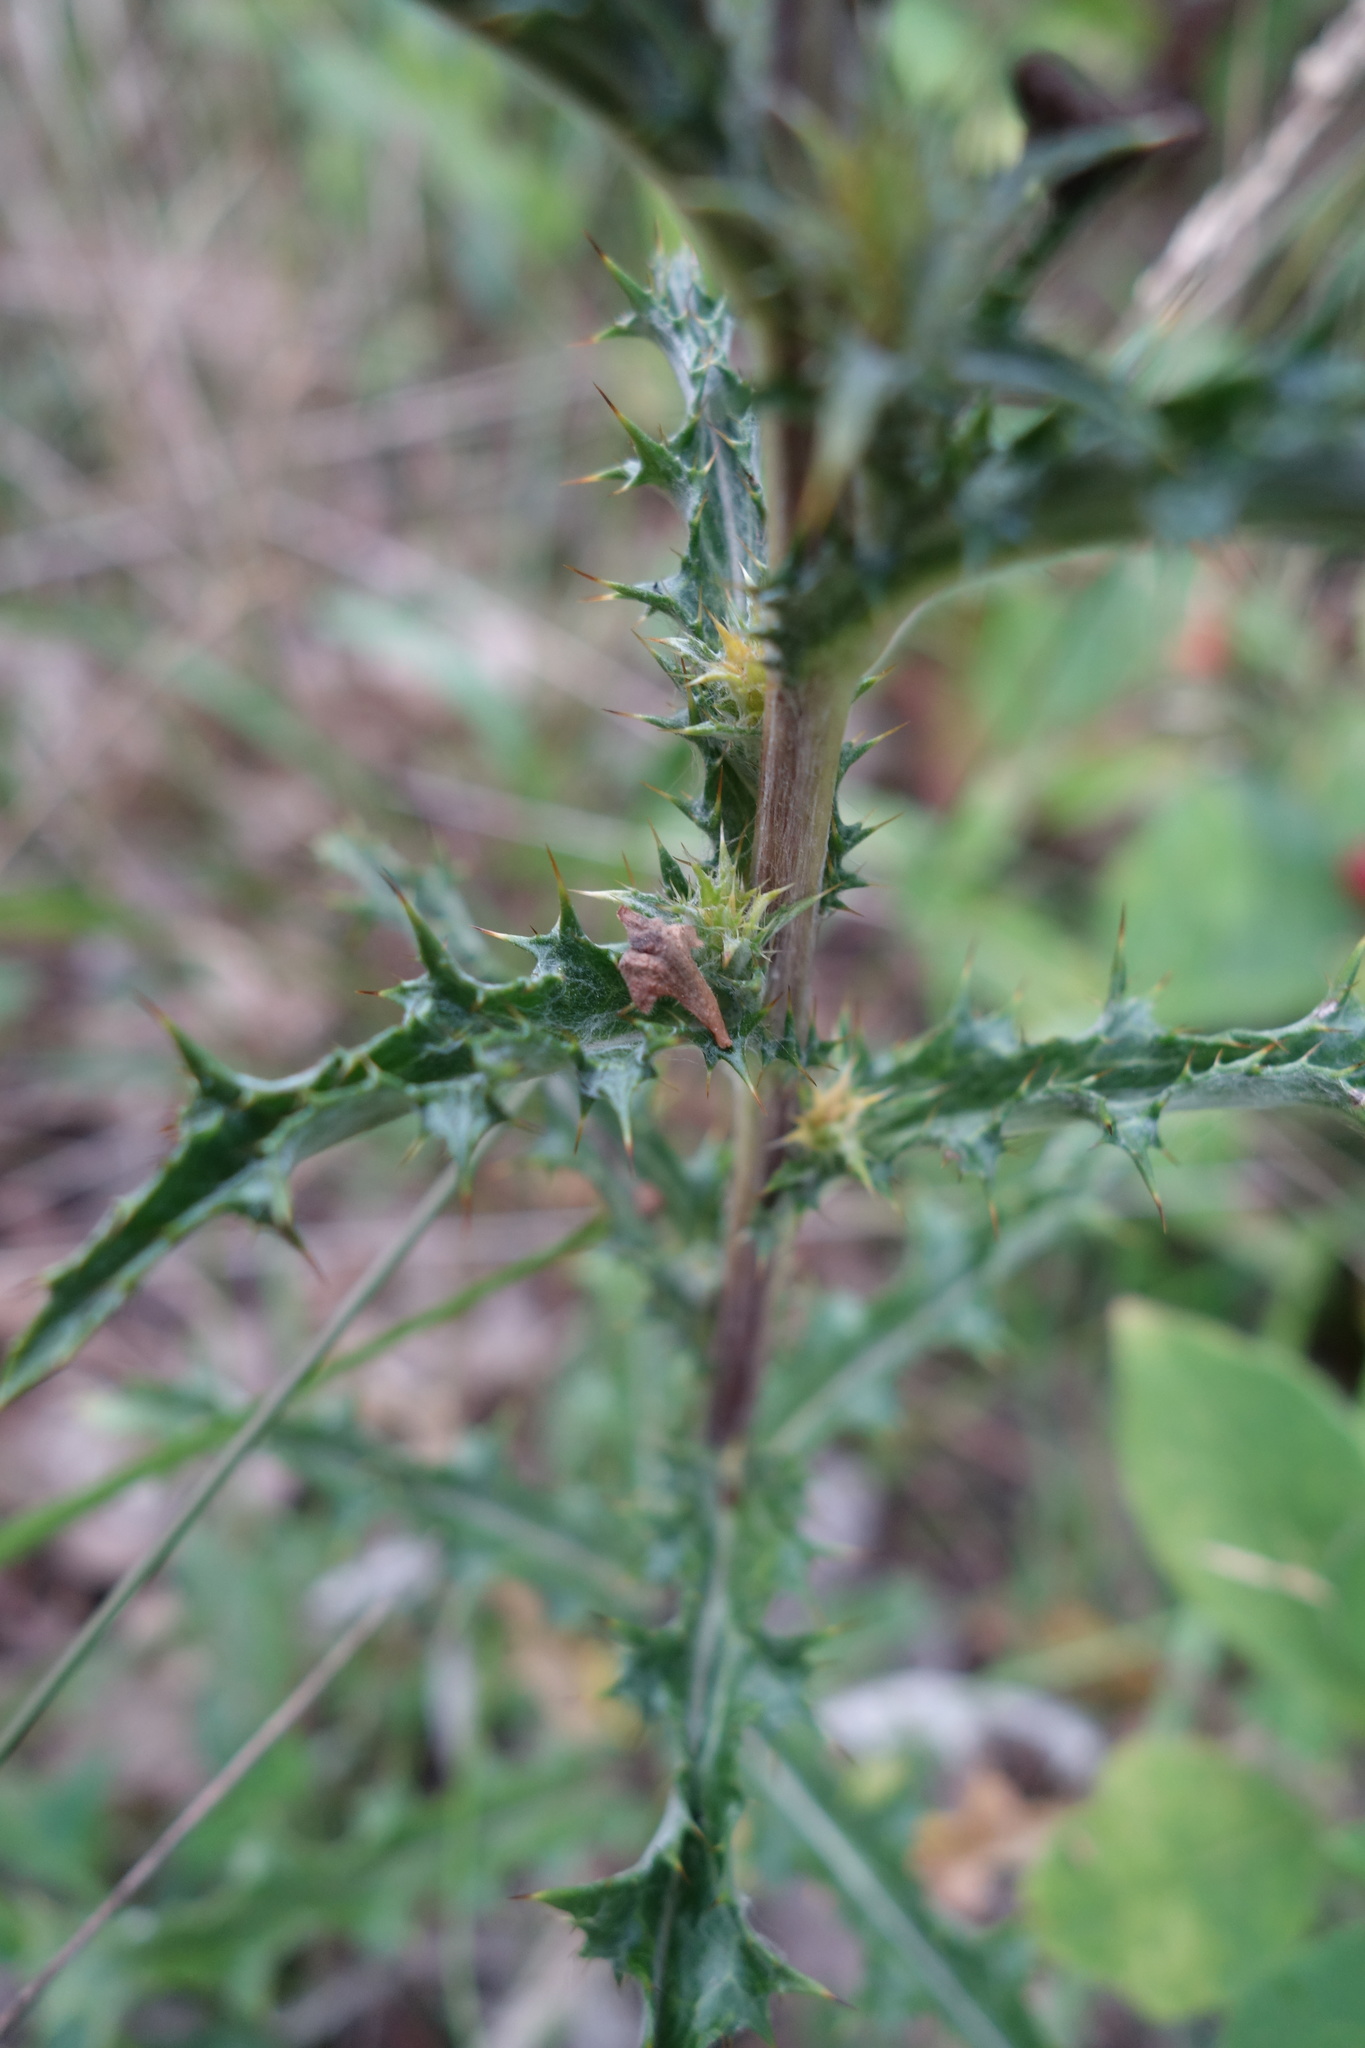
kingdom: Plantae
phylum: Tracheophyta
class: Magnoliopsida
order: Asterales
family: Asteraceae
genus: Carlina
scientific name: Carlina vulgaris
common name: Carline thistle
